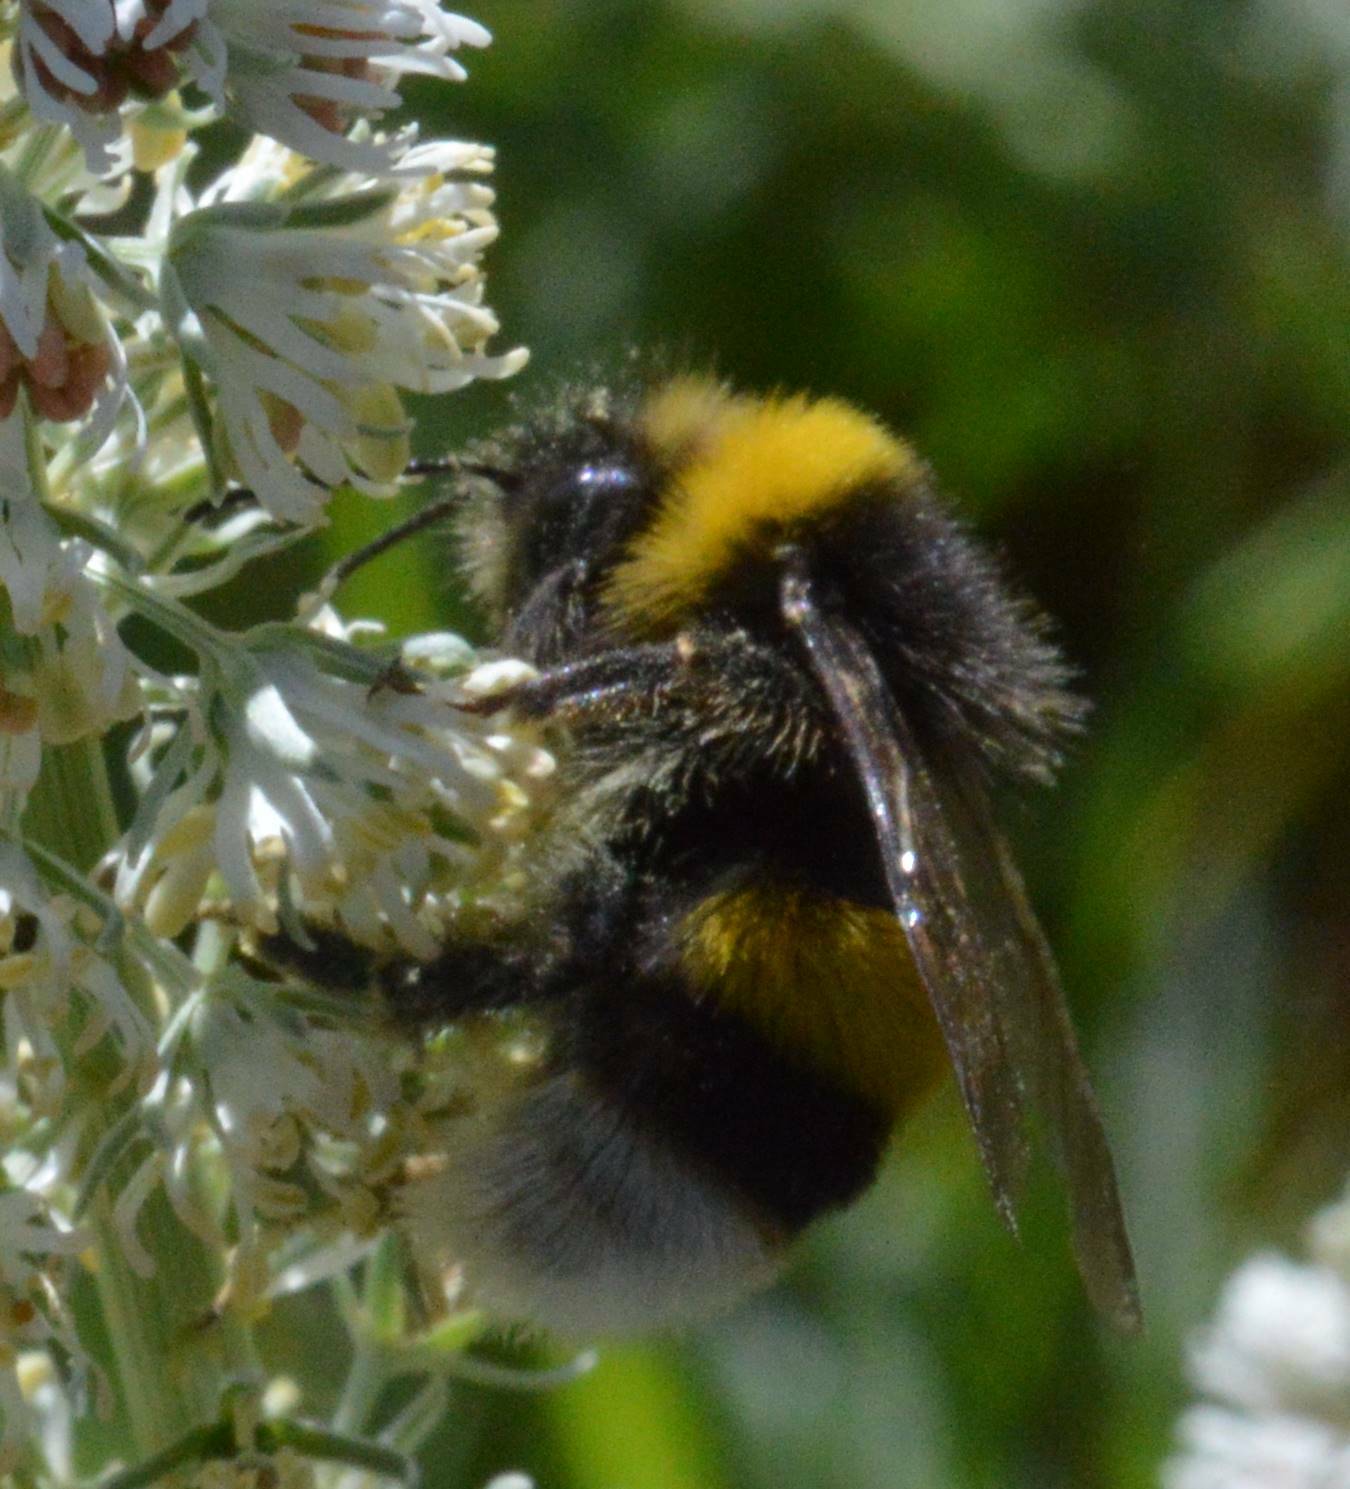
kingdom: Animalia
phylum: Arthropoda
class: Insecta
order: Hymenoptera
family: Apidae
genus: Bombus
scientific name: Bombus terrestris
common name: Buff-tailed bumblebee
